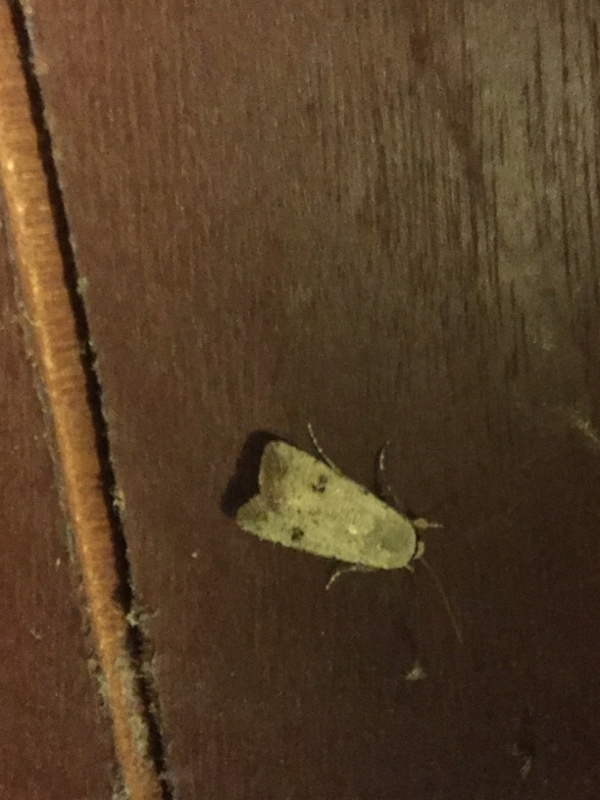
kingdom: Animalia
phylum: Arthropoda
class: Insecta
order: Lepidoptera
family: Noctuidae
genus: Anicla
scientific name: Anicla infecta
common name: Green cutworm
